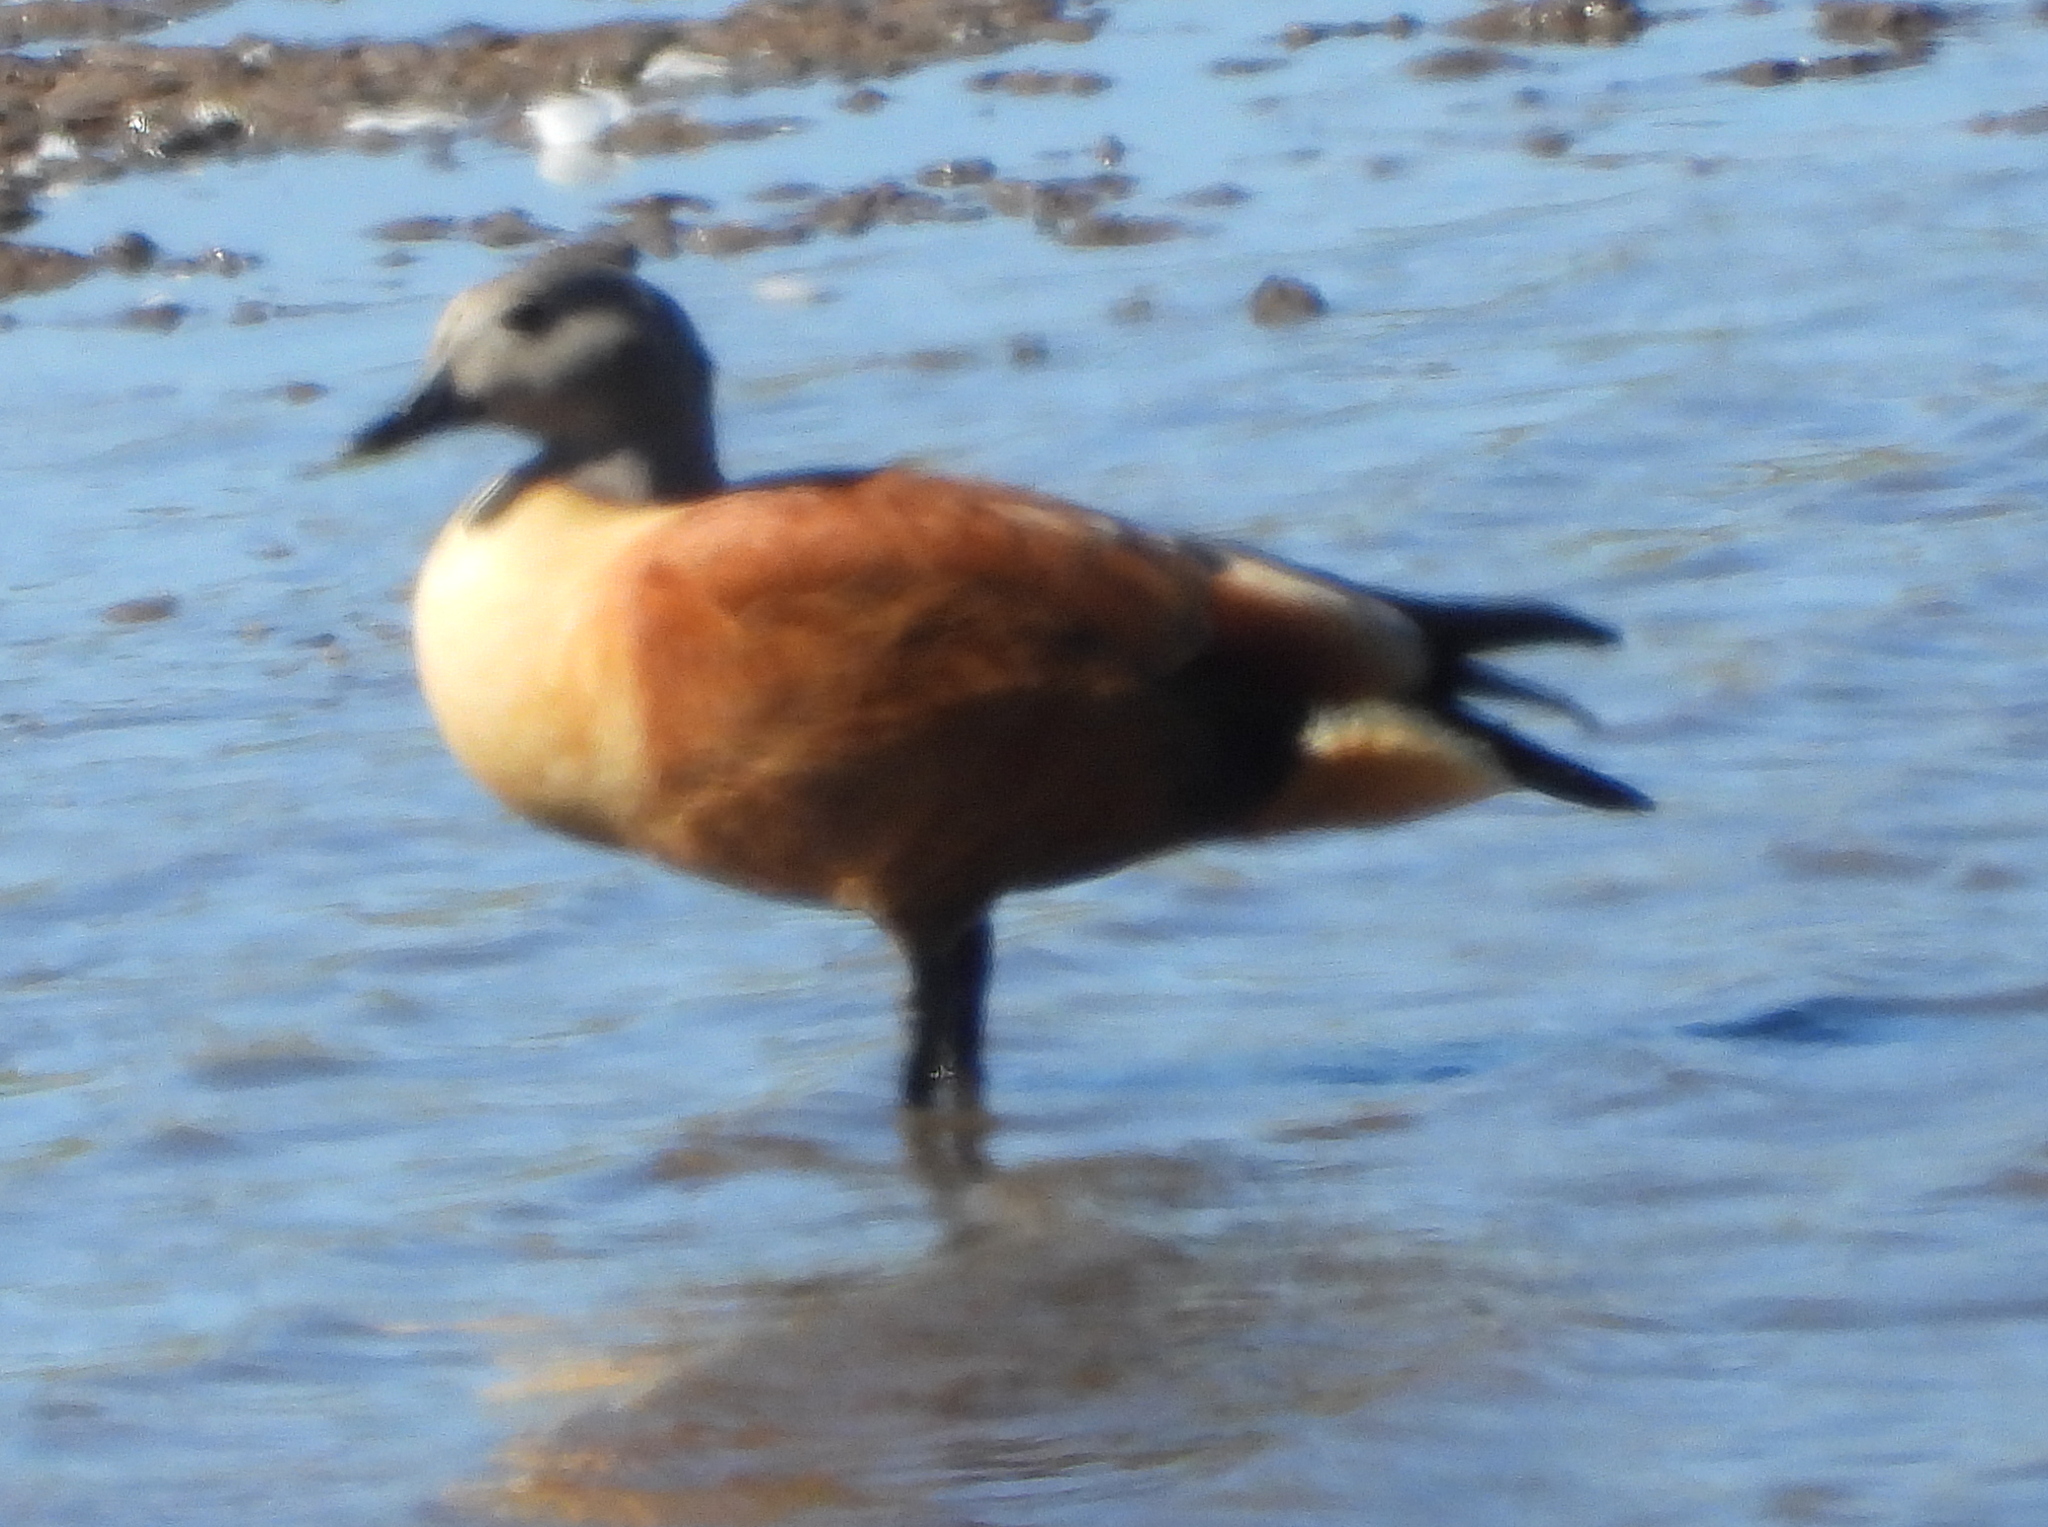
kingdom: Animalia
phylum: Chordata
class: Aves
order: Anseriformes
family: Anatidae
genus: Tadorna
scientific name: Tadorna cana
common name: South african shelduck
